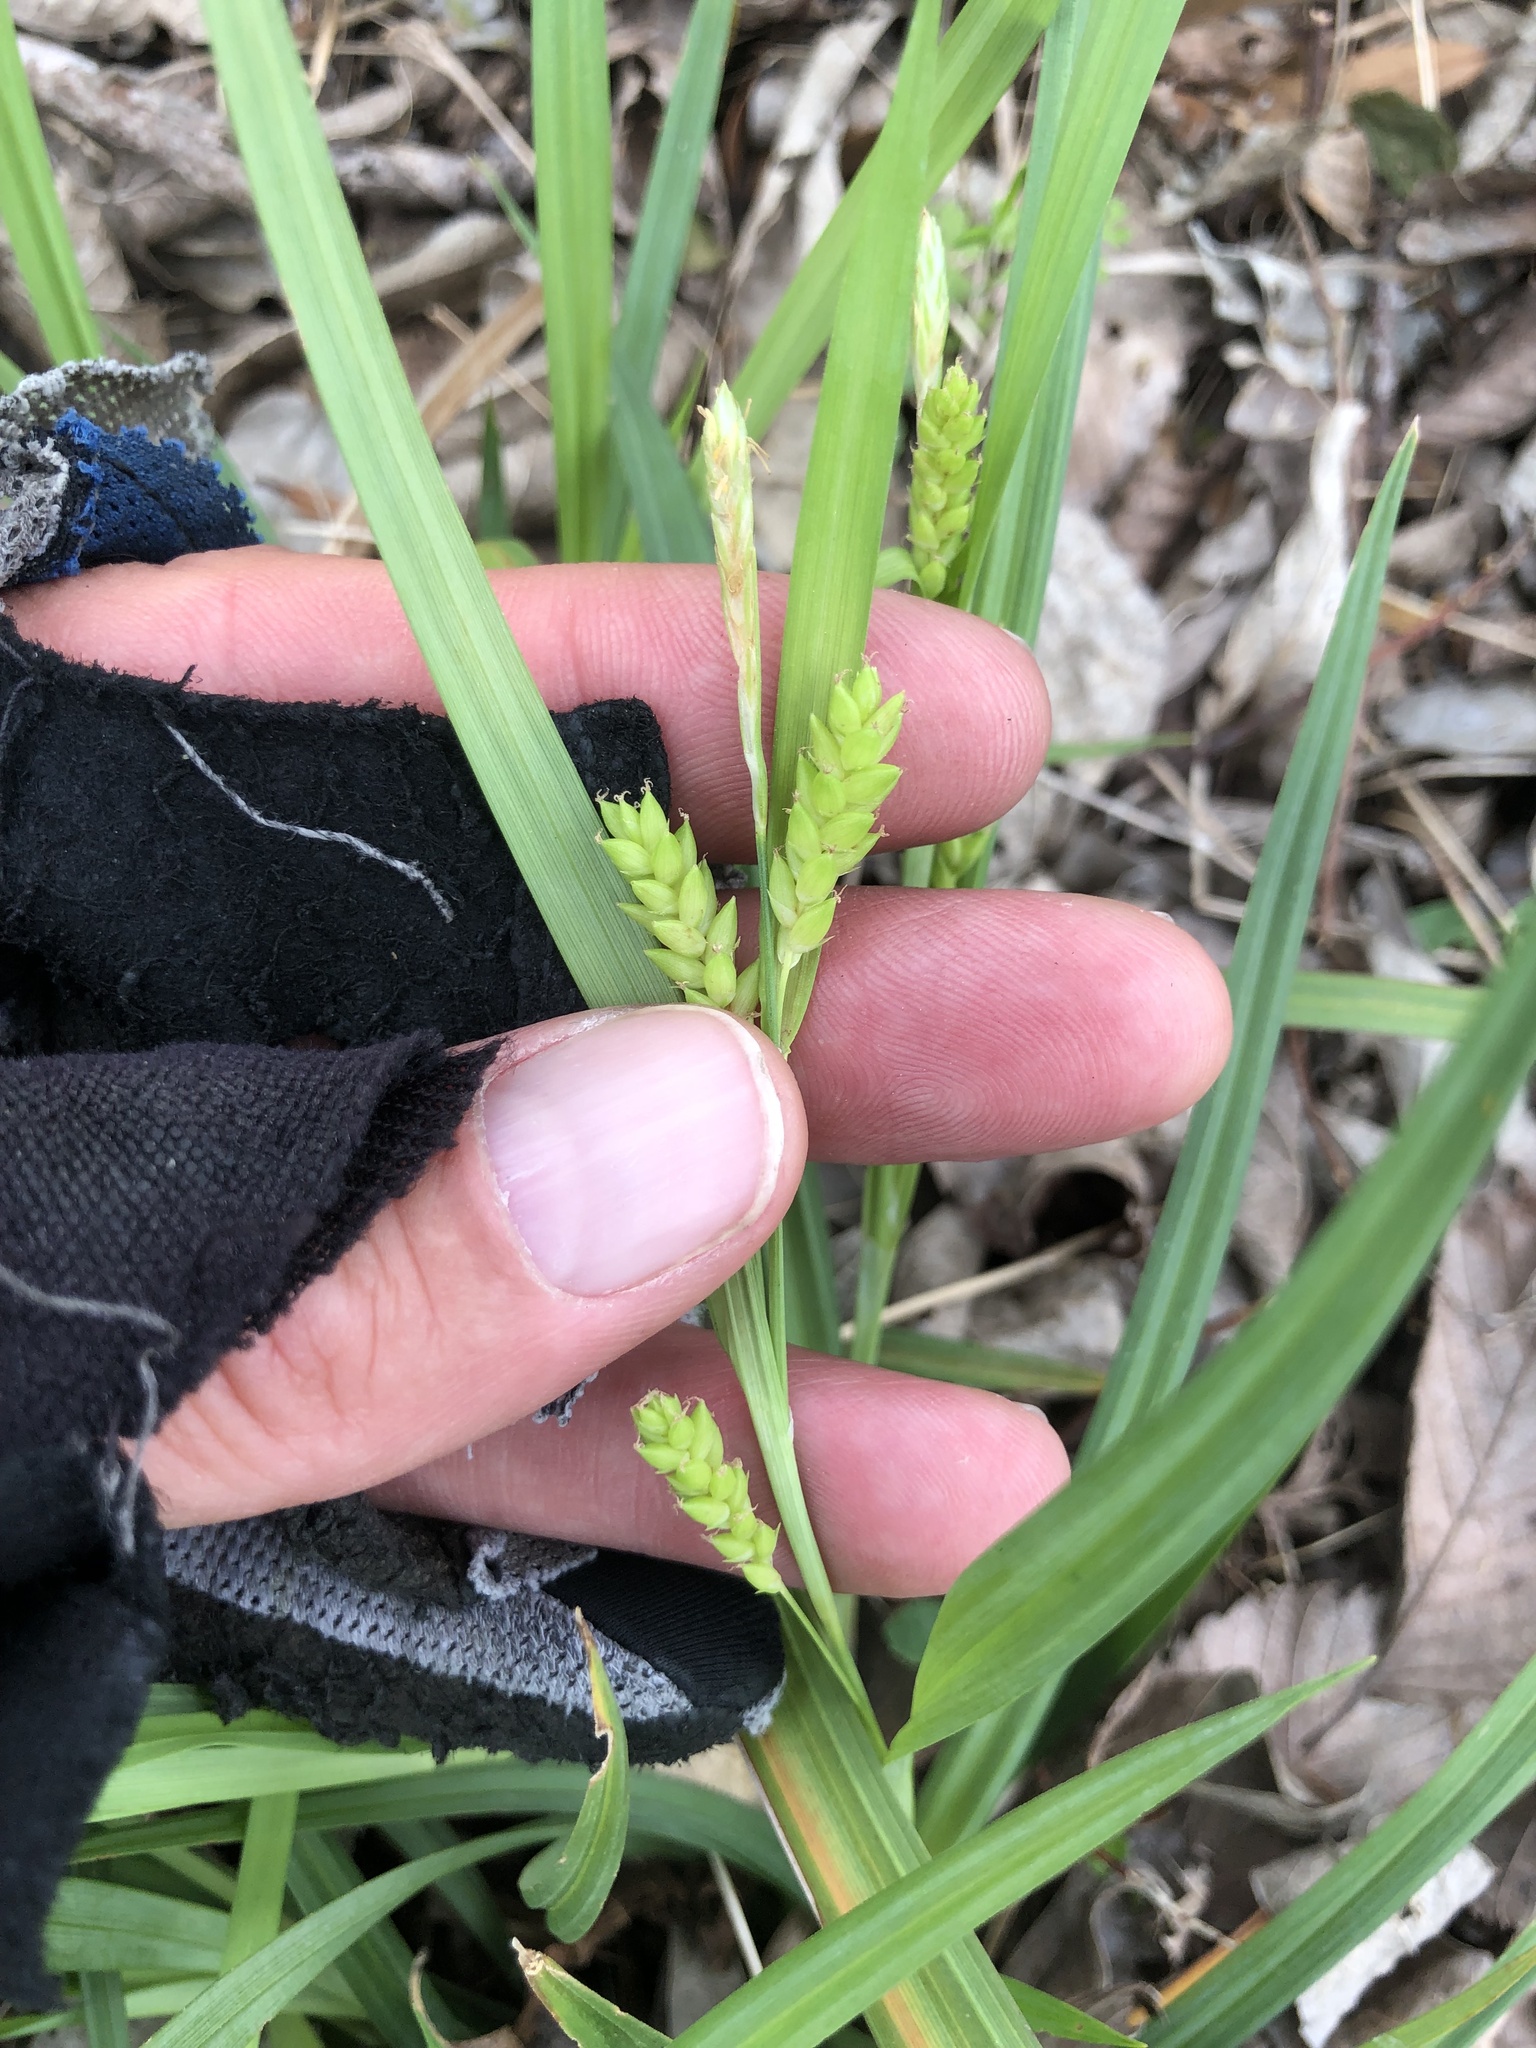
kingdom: Plantae
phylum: Tracheophyta
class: Liliopsida
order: Poales
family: Cyperaceae
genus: Carex
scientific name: Carex flaccosperma
